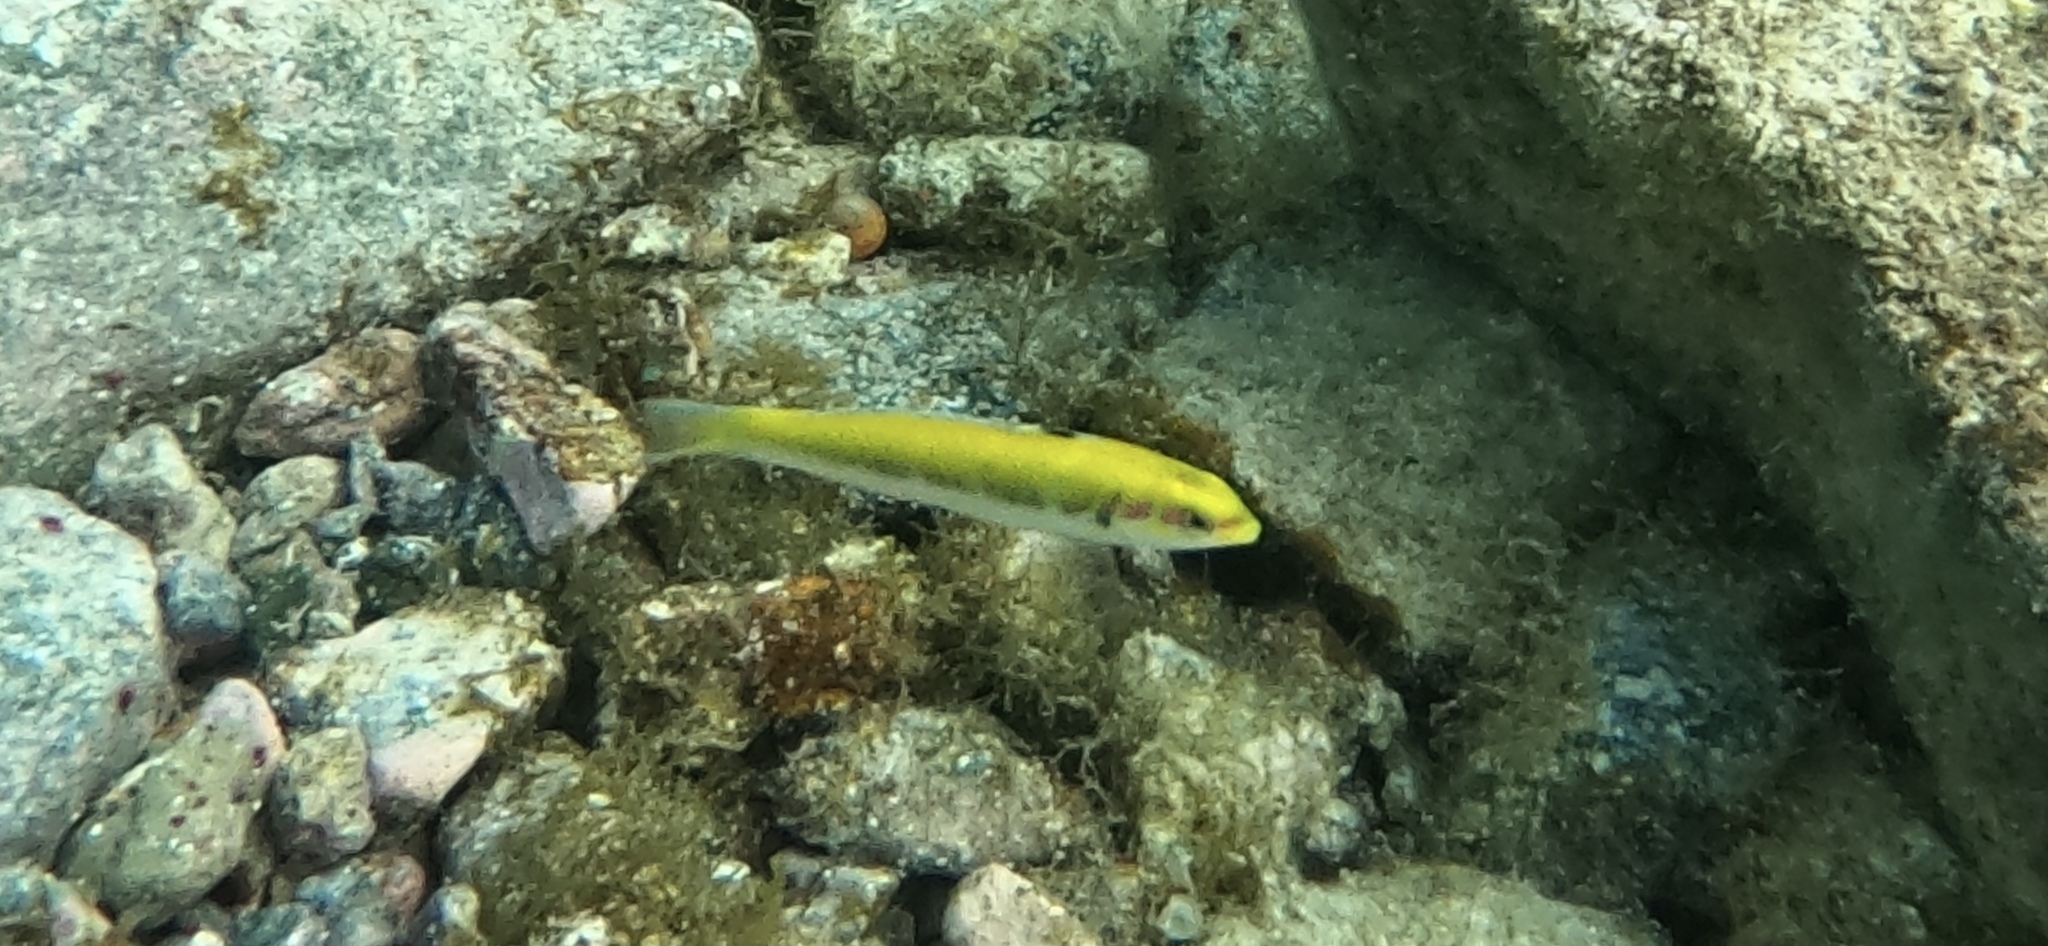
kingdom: Animalia
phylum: Chordata
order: Perciformes
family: Labridae
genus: Thalassoma
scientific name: Thalassoma bifasciatum
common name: Bluehead wrasse
